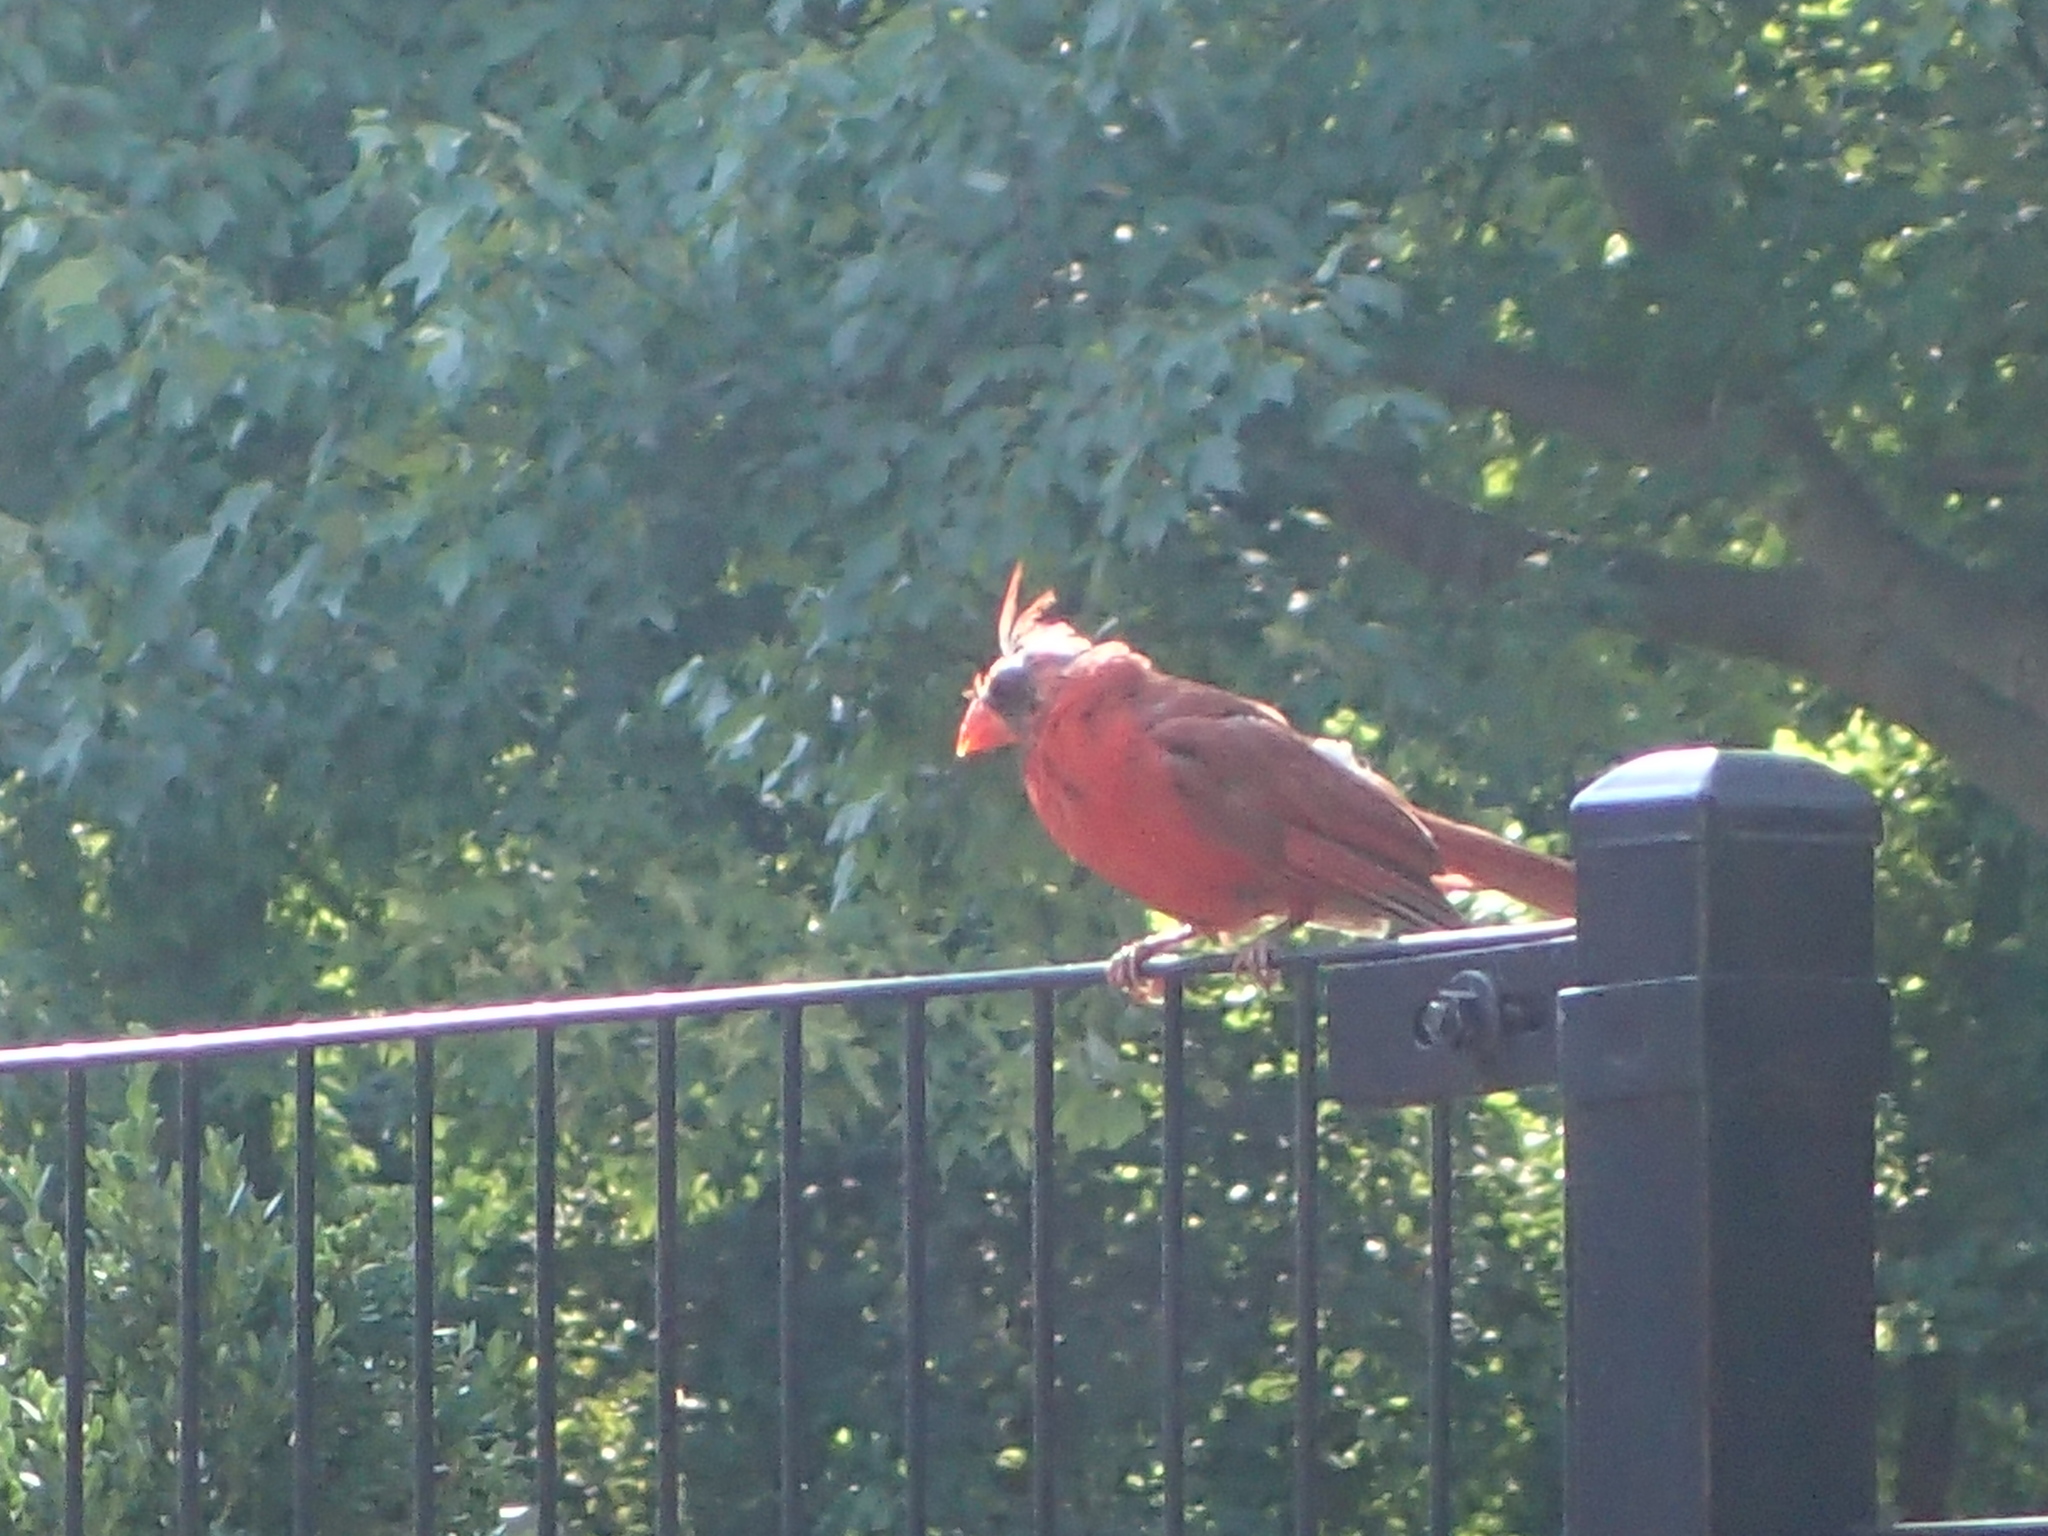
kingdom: Animalia
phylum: Chordata
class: Aves
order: Passeriformes
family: Cardinalidae
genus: Cardinalis
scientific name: Cardinalis cardinalis
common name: Northern cardinal
